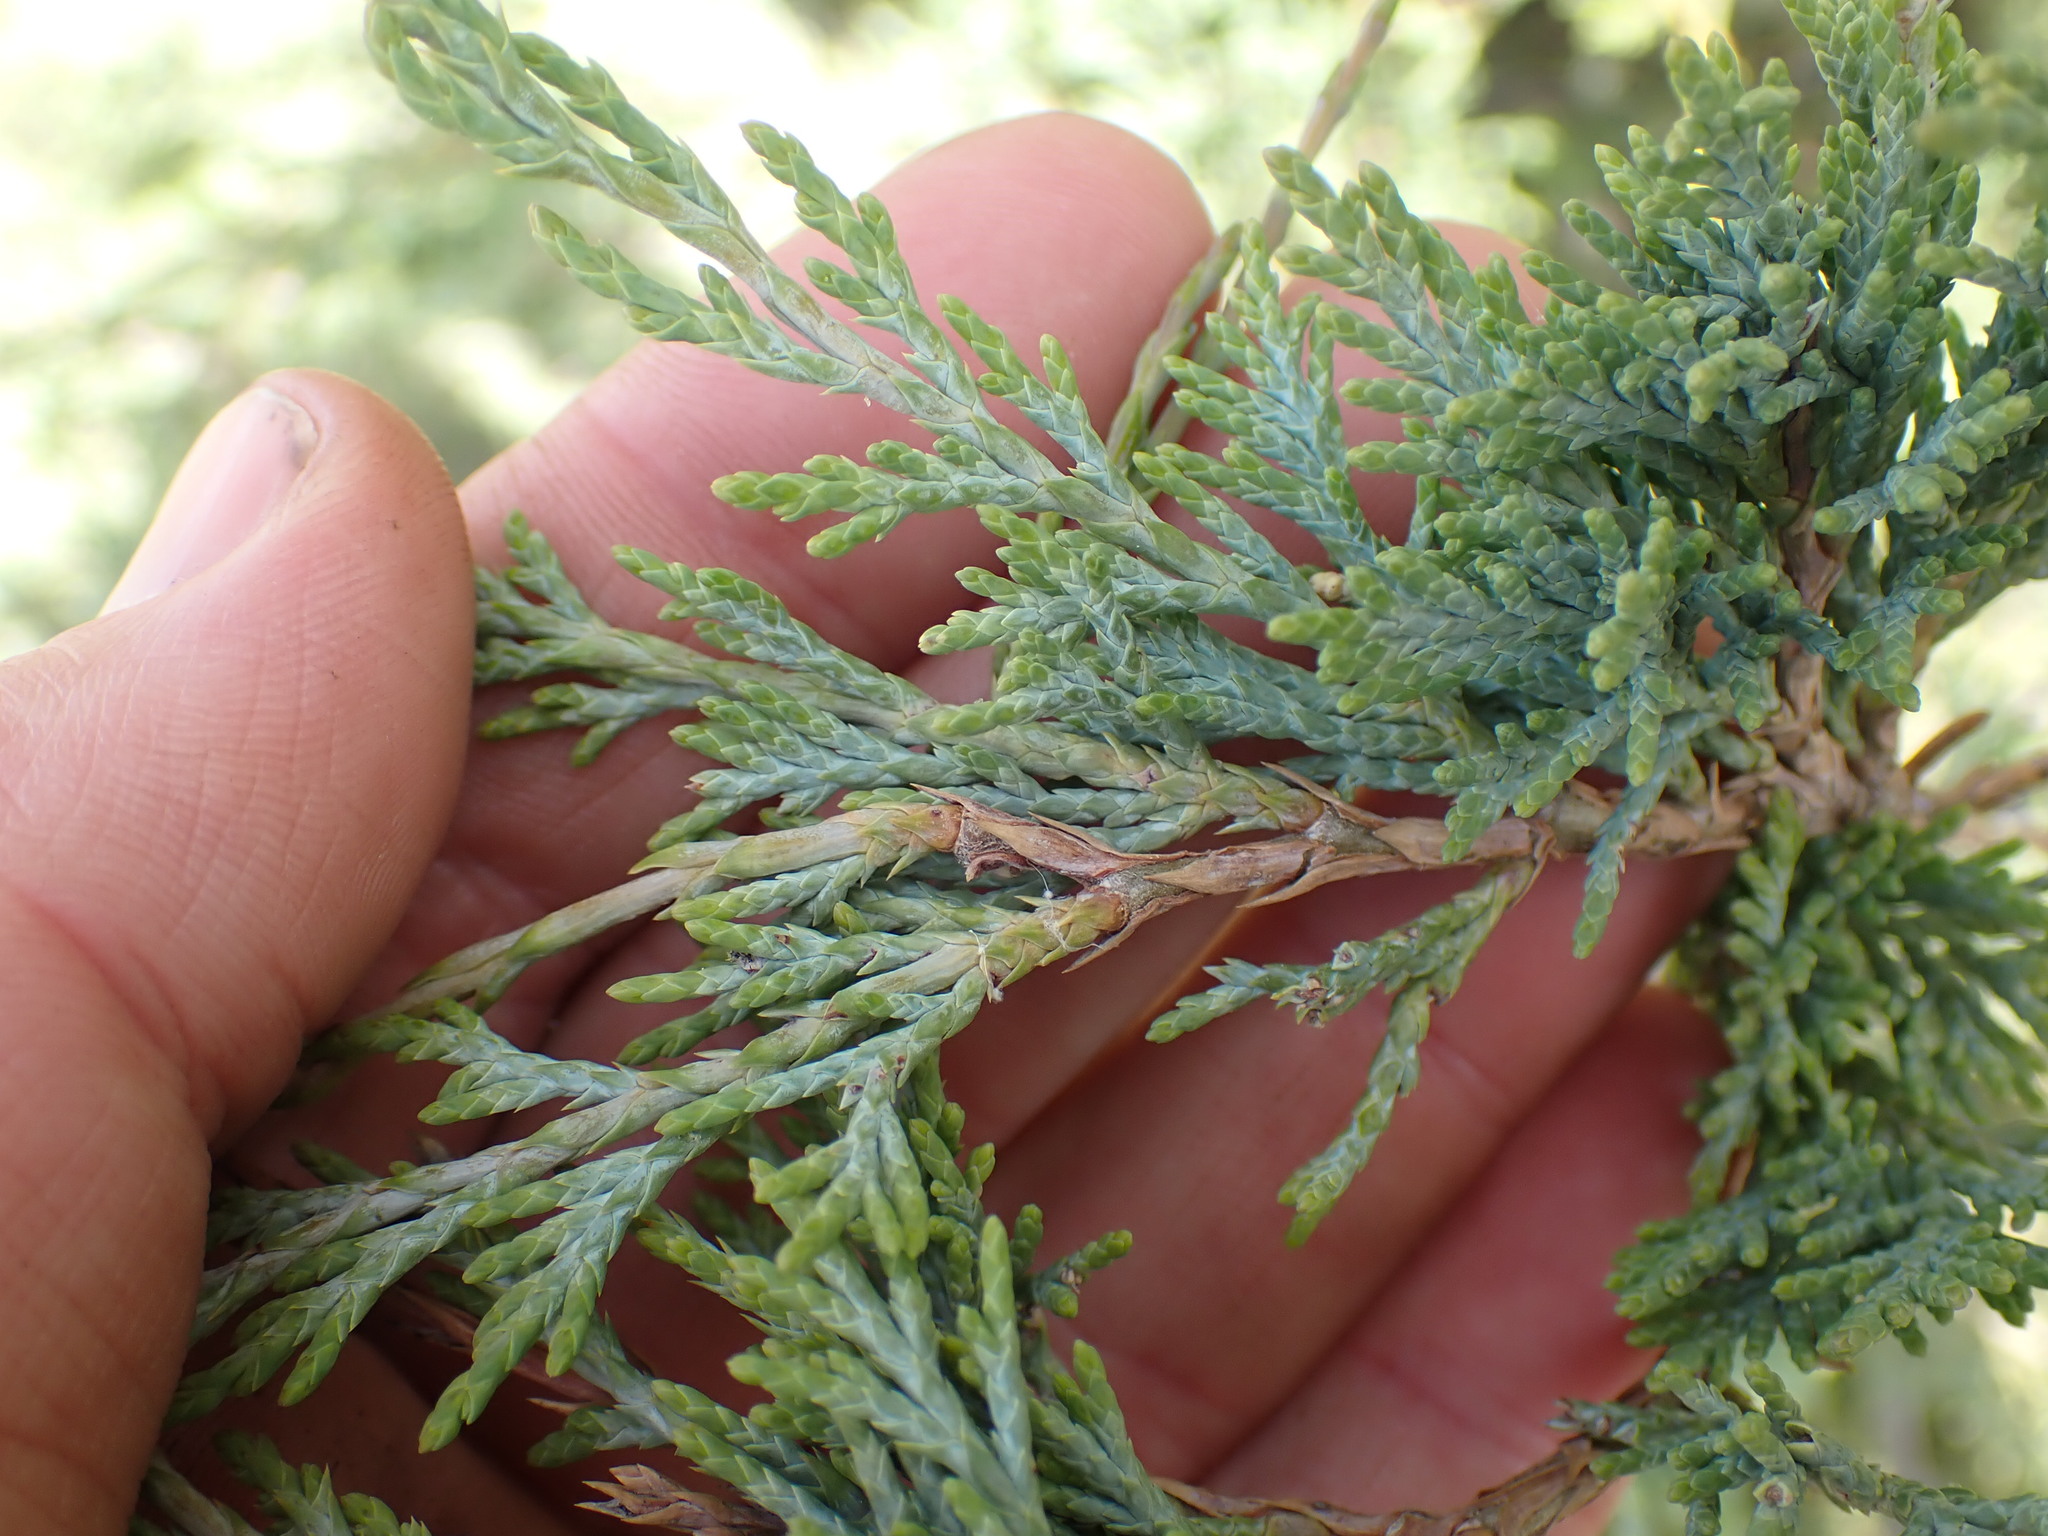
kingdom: Plantae
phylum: Tracheophyta
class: Pinopsida
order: Pinales
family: Cupressaceae
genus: Juniperus
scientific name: Juniperus scopulorum
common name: Rocky mountain juniper
